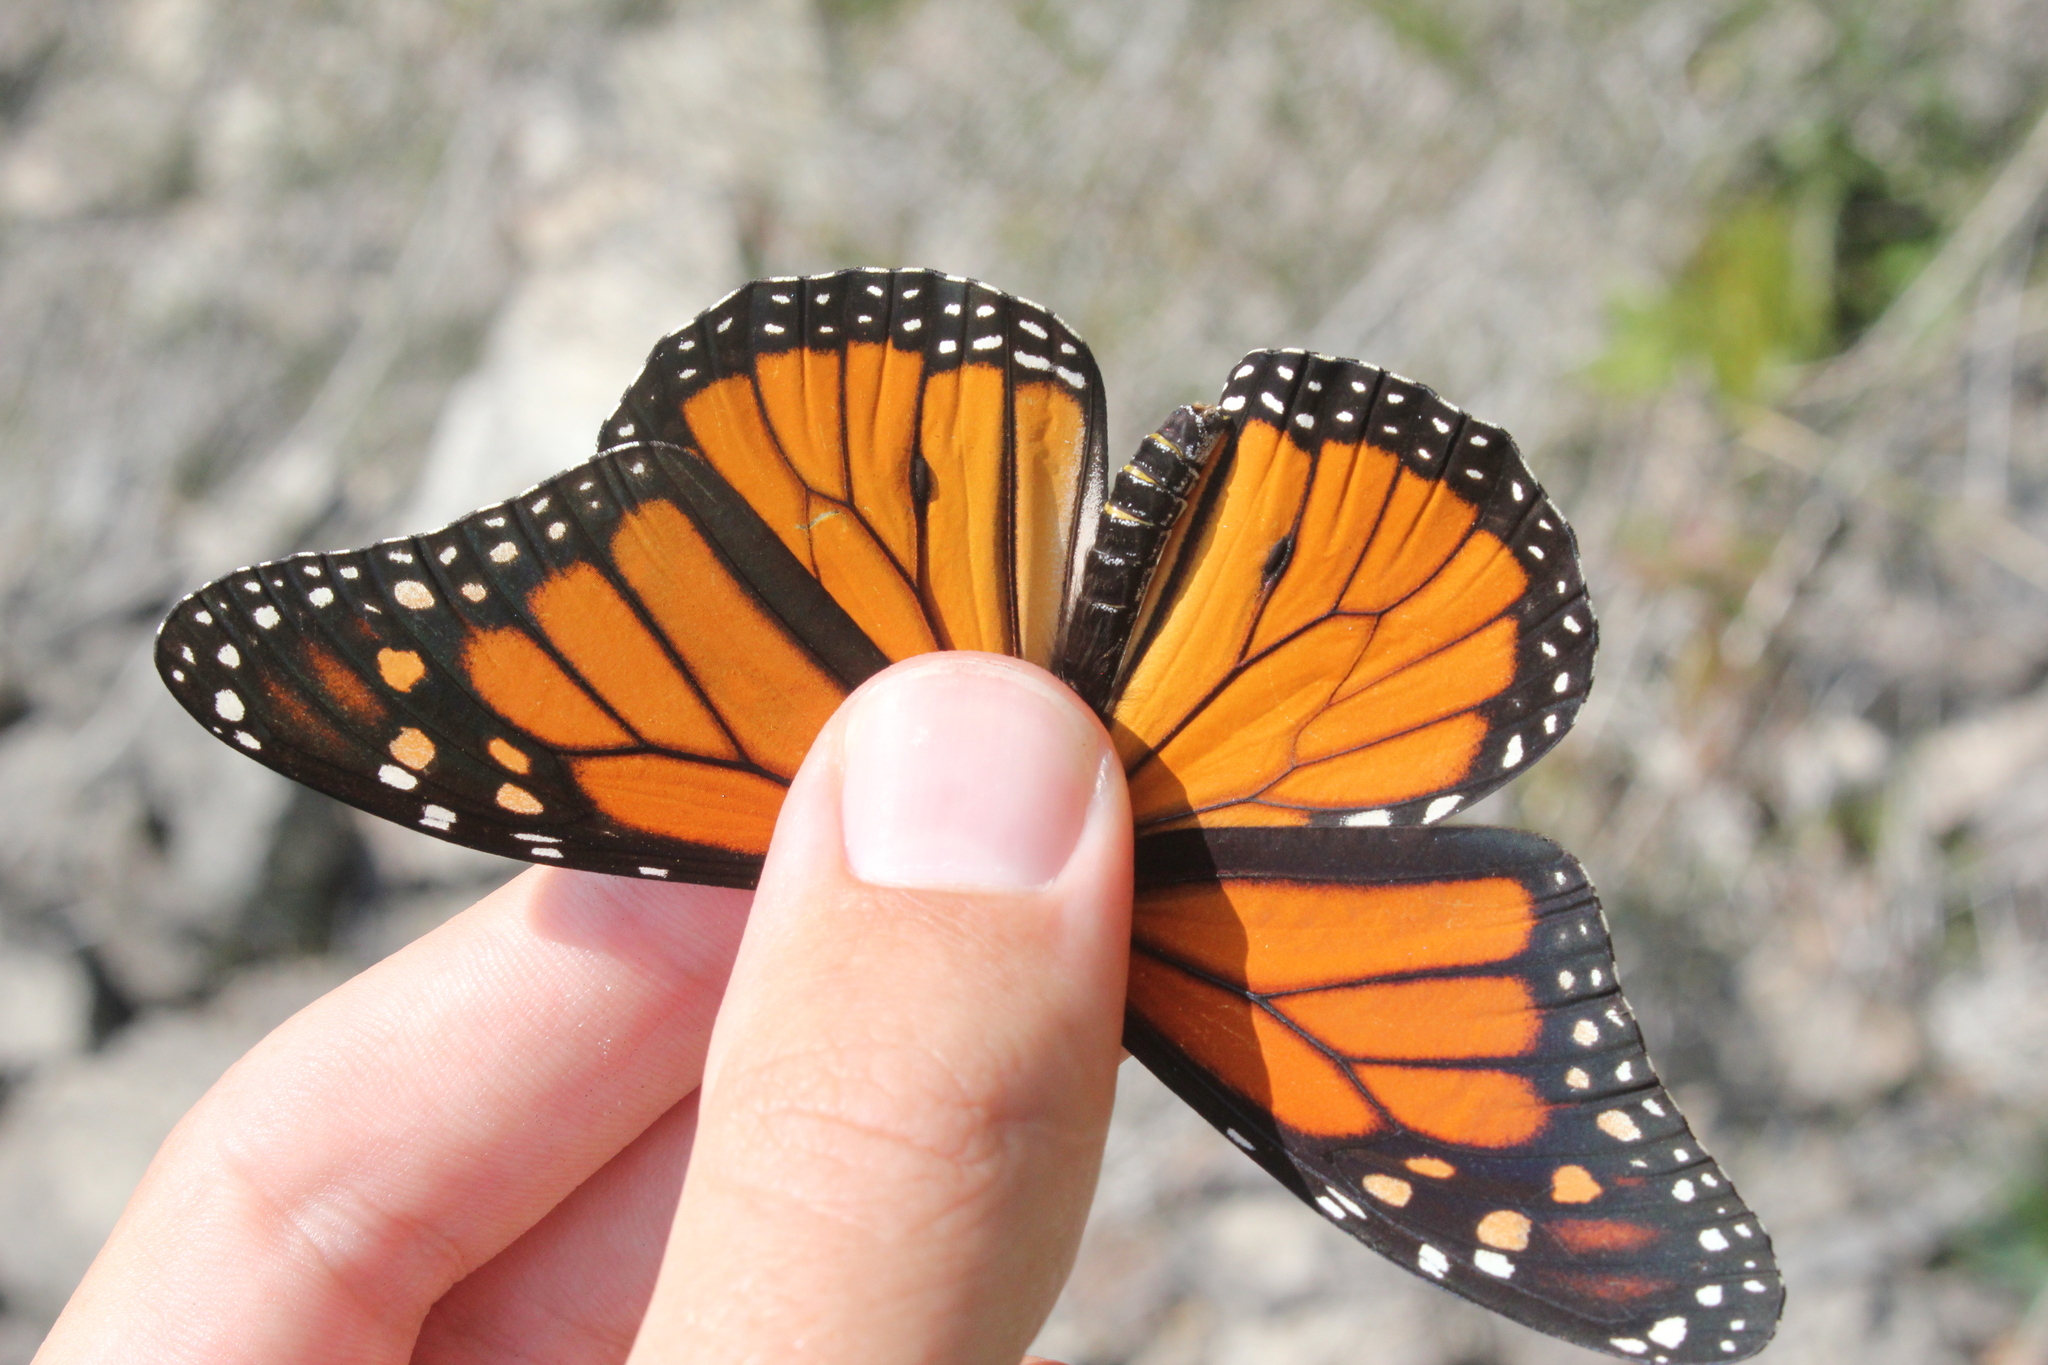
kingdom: Animalia
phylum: Arthropoda
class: Insecta
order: Lepidoptera
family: Nymphalidae
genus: Danaus
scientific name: Danaus plexippus
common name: Monarch
